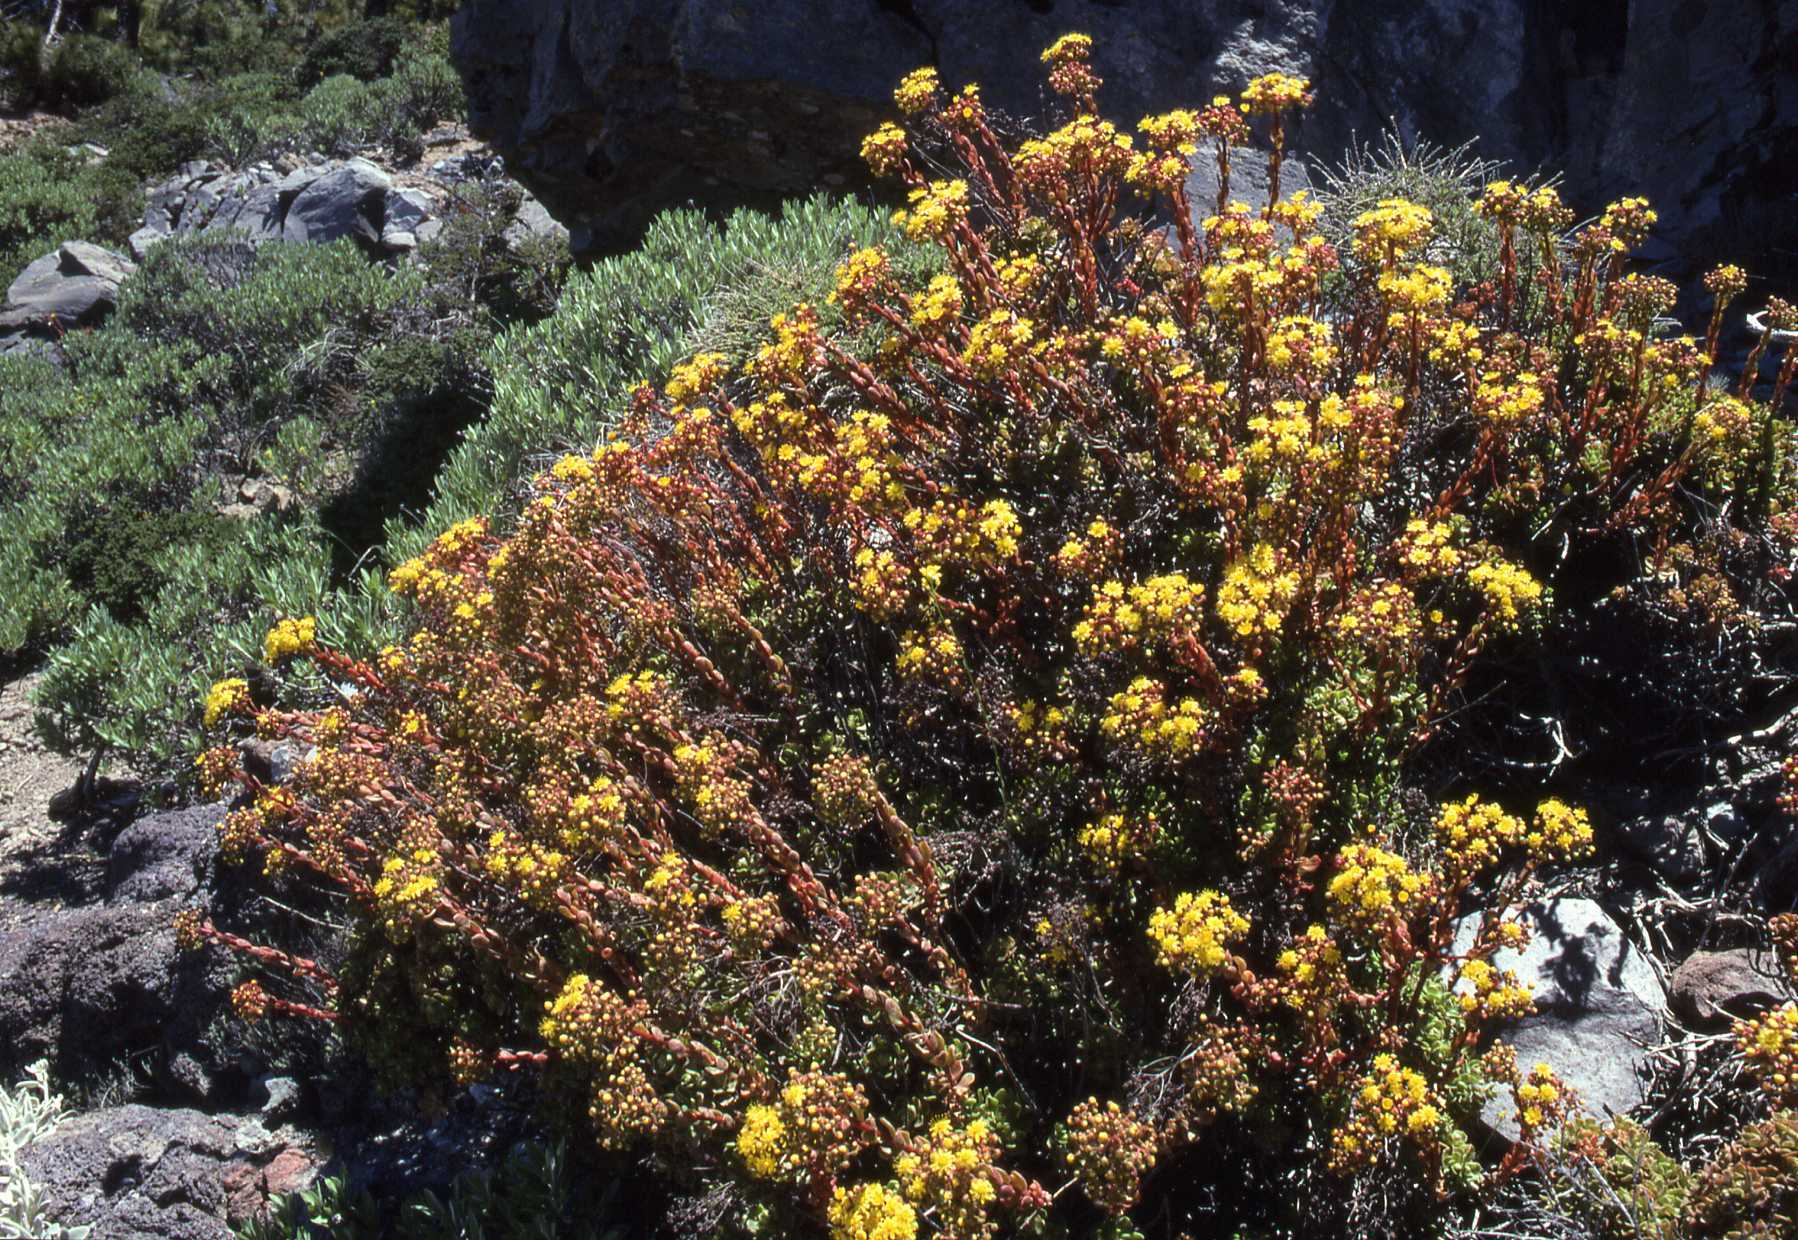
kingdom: Plantae
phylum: Tracheophyta
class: Magnoliopsida
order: Saxifragales
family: Crassulaceae
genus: Aeonium
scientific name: Aeonium spathulatum
